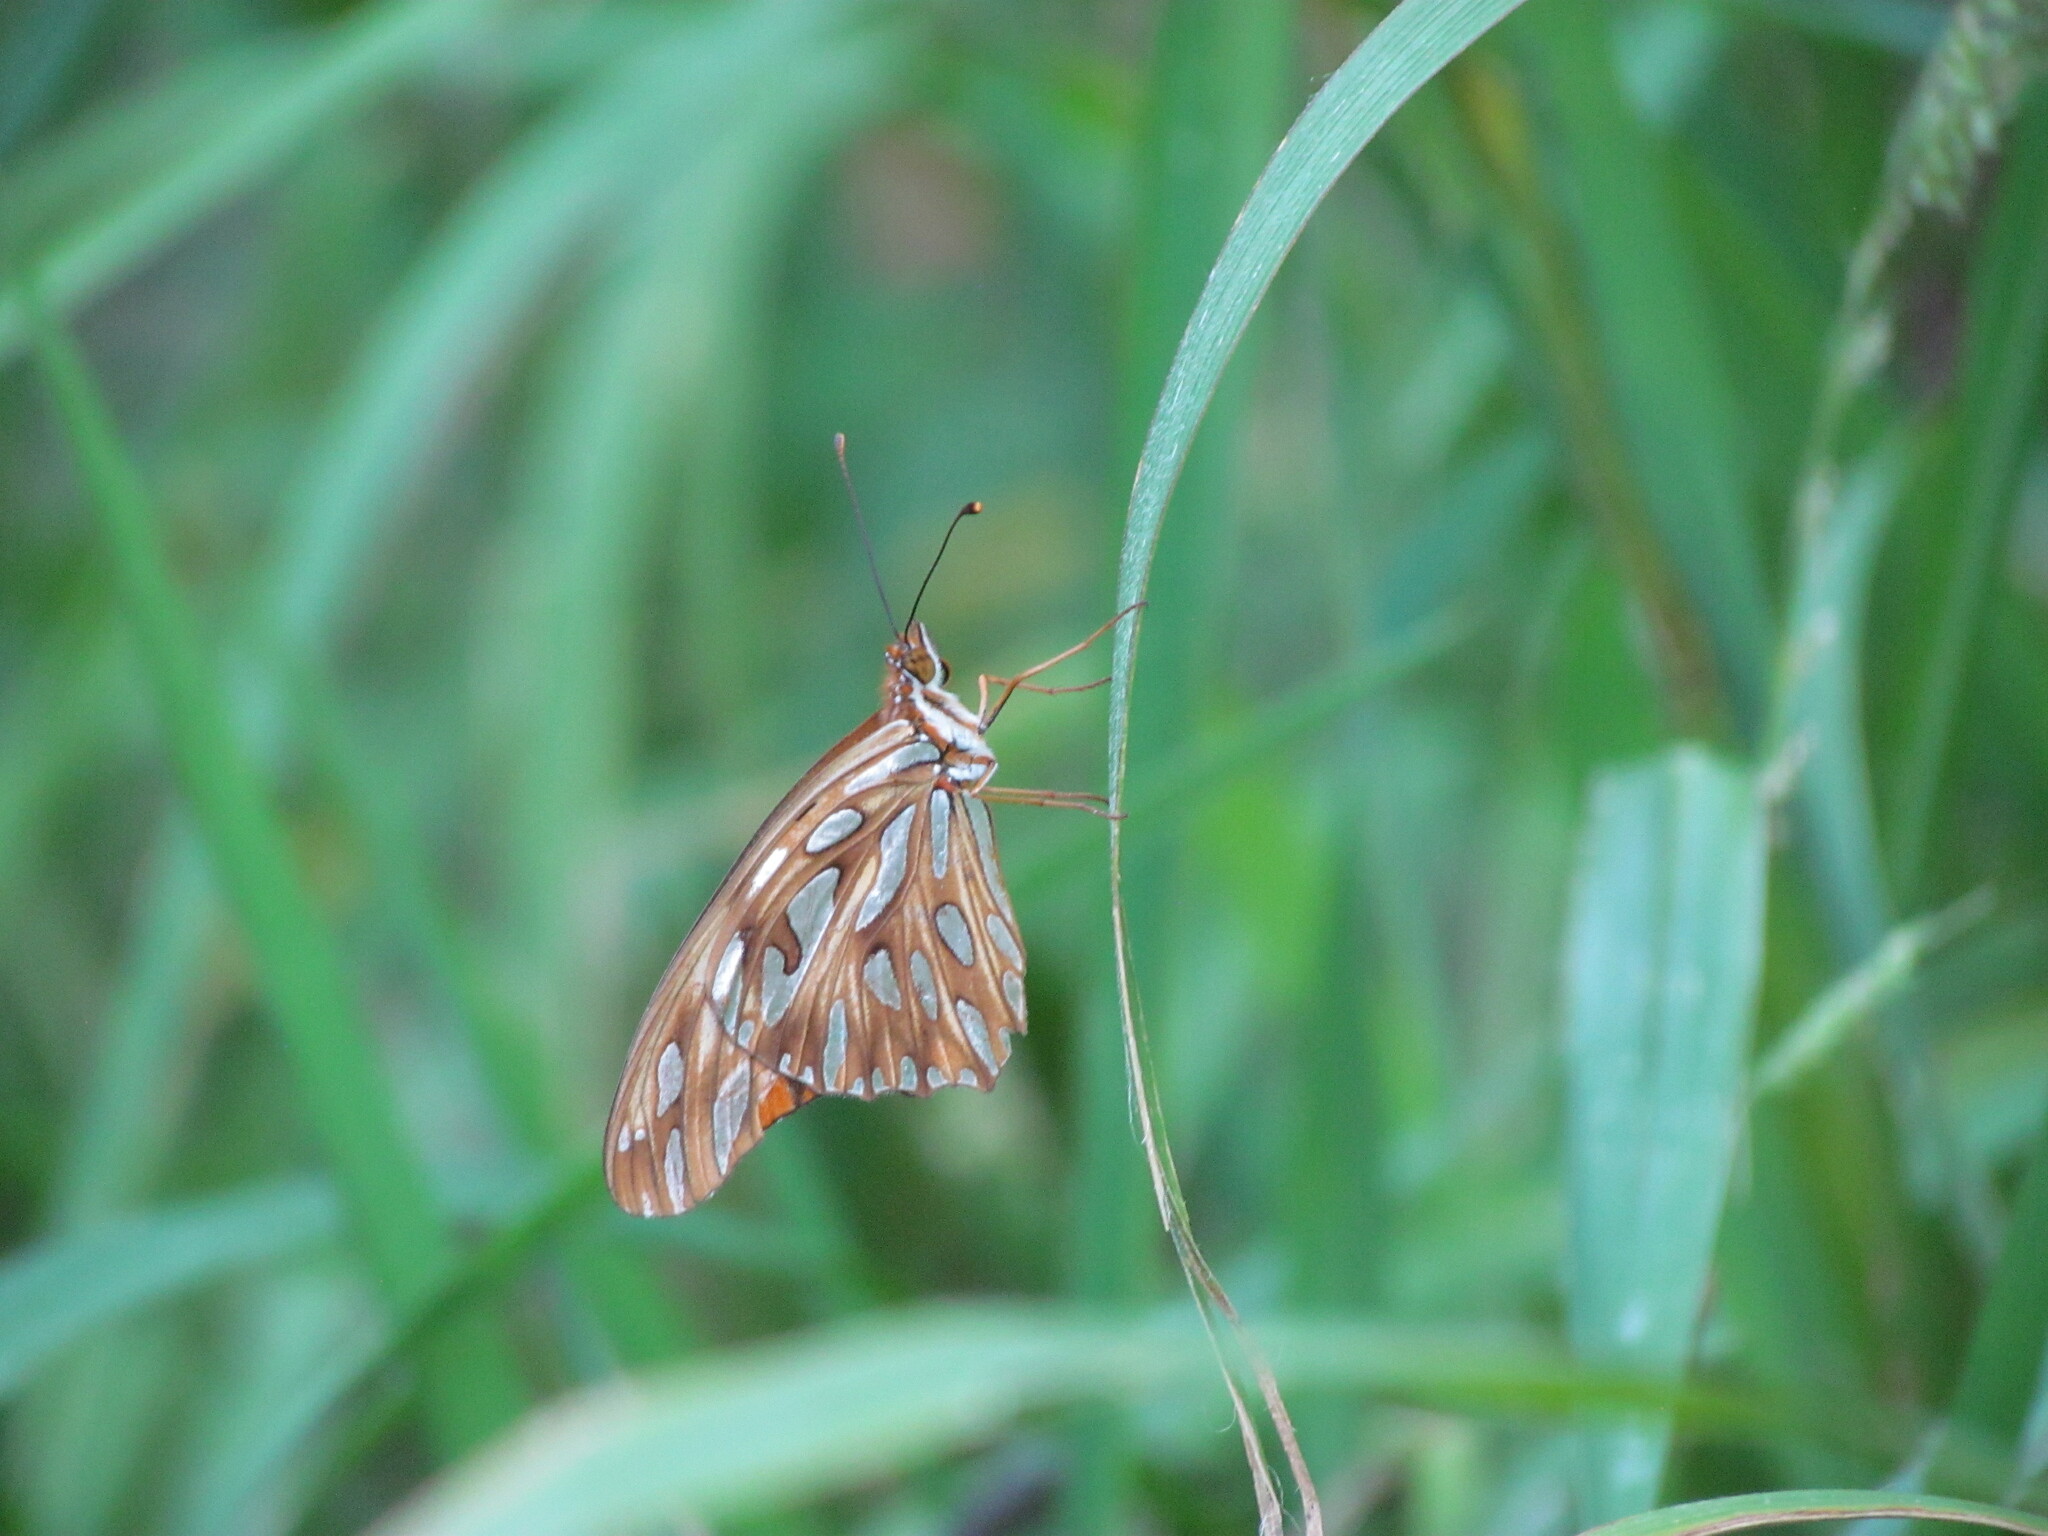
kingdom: Animalia
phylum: Arthropoda
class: Insecta
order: Lepidoptera
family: Nymphalidae
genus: Dione
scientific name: Dione vanillae
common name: Gulf fritillary
